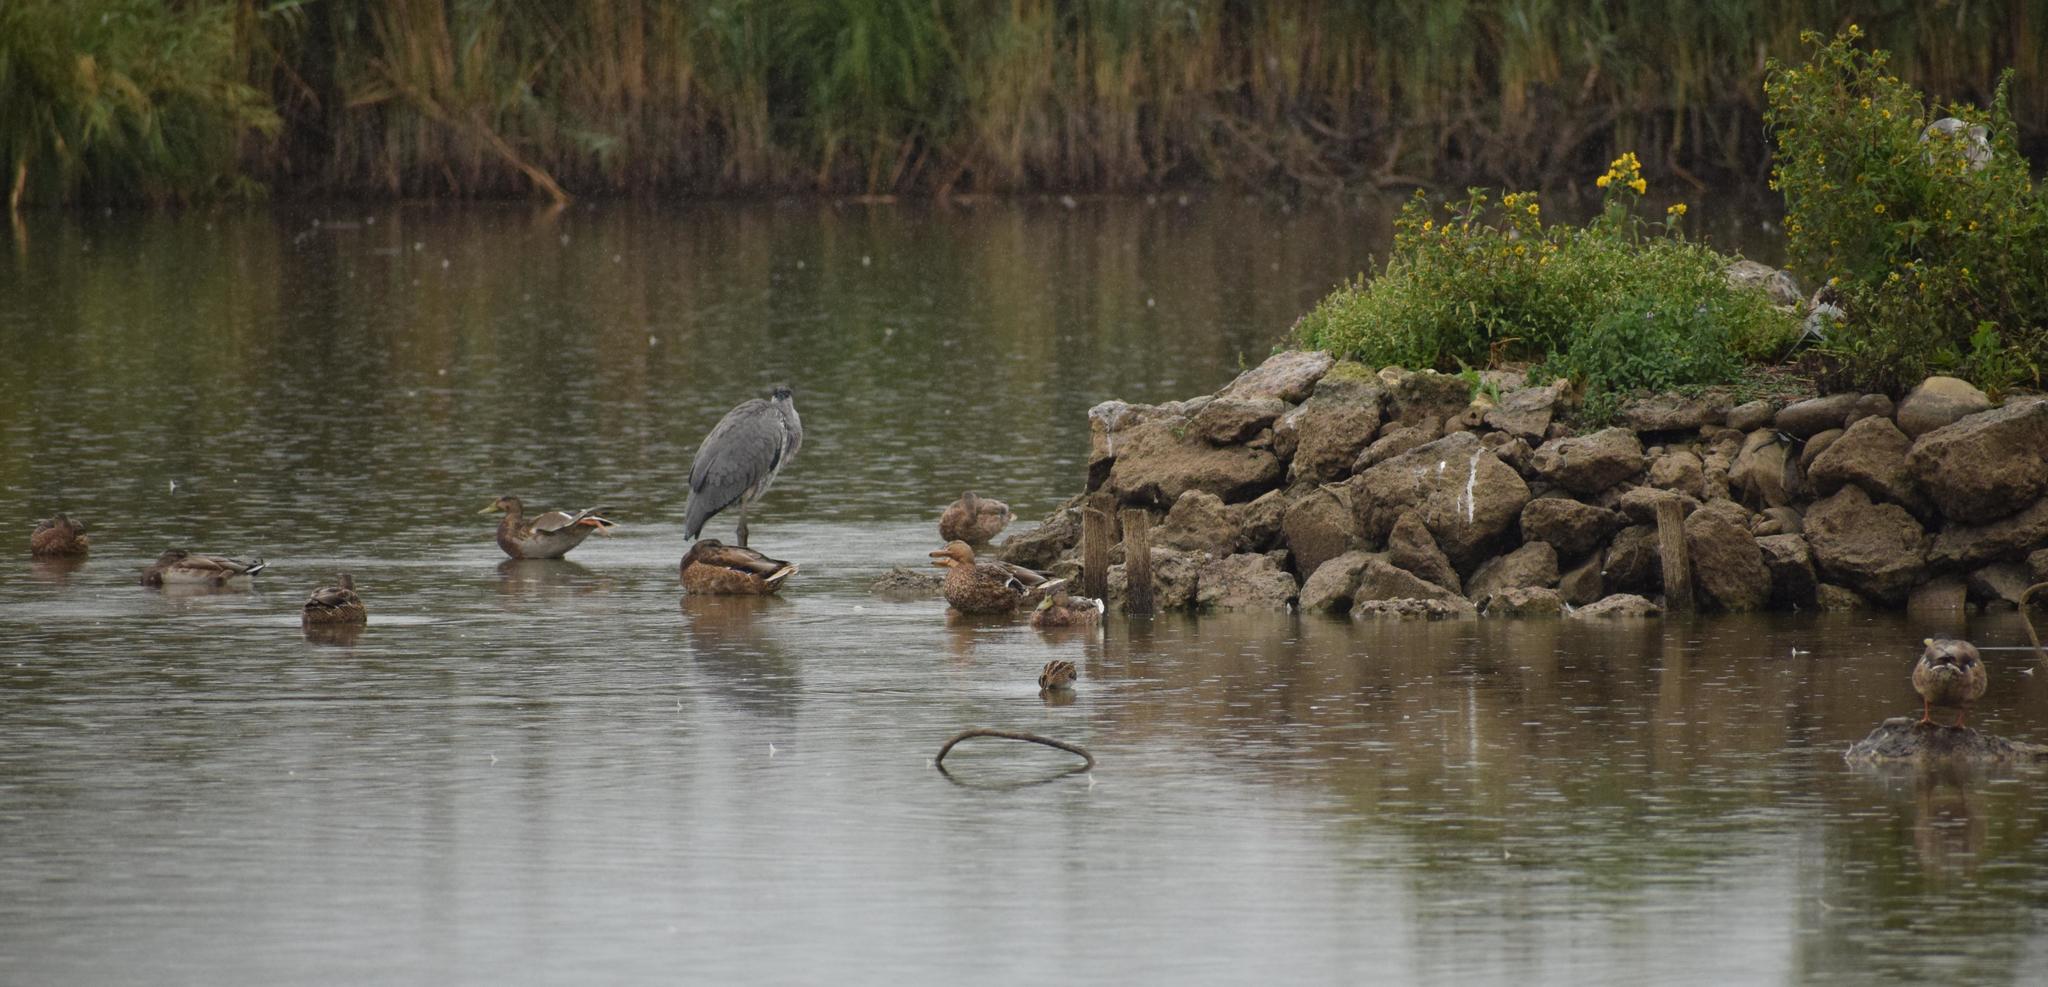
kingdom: Animalia
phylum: Chordata
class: Aves
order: Charadriiformes
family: Scolopacidae
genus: Gallinago
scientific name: Gallinago gallinago
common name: Common snipe
